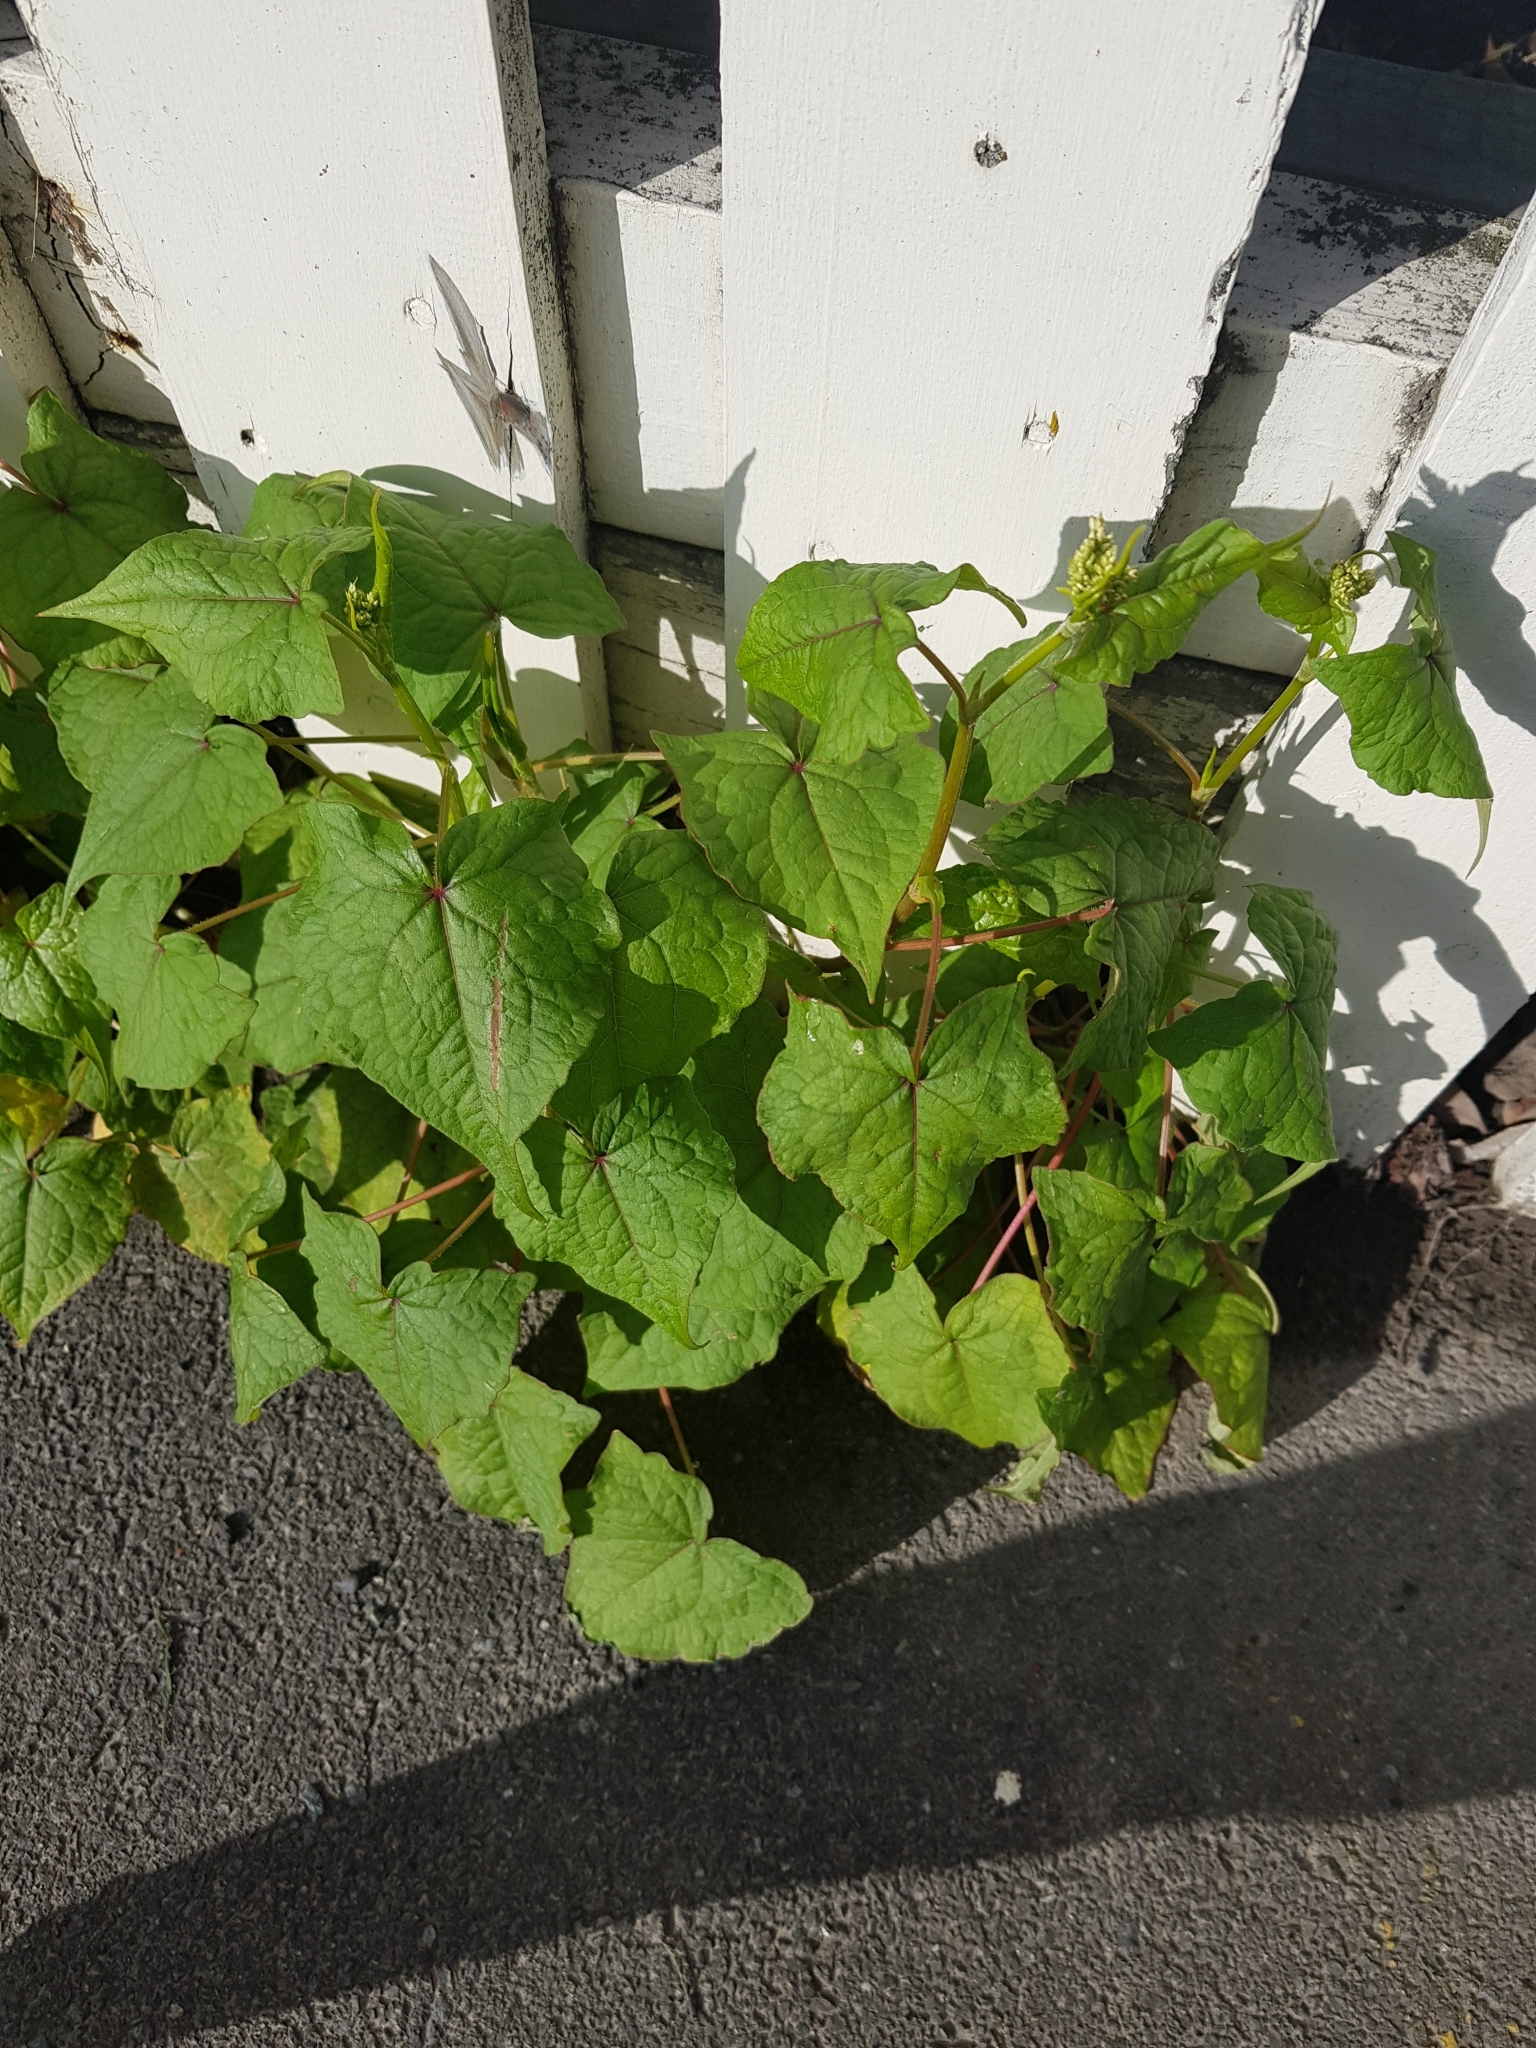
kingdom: Plantae
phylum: Tracheophyta
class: Magnoliopsida
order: Caryophyllales
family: Polygonaceae
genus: Fagopyrum
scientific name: Fagopyrum esculentum
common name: Buckwheat
